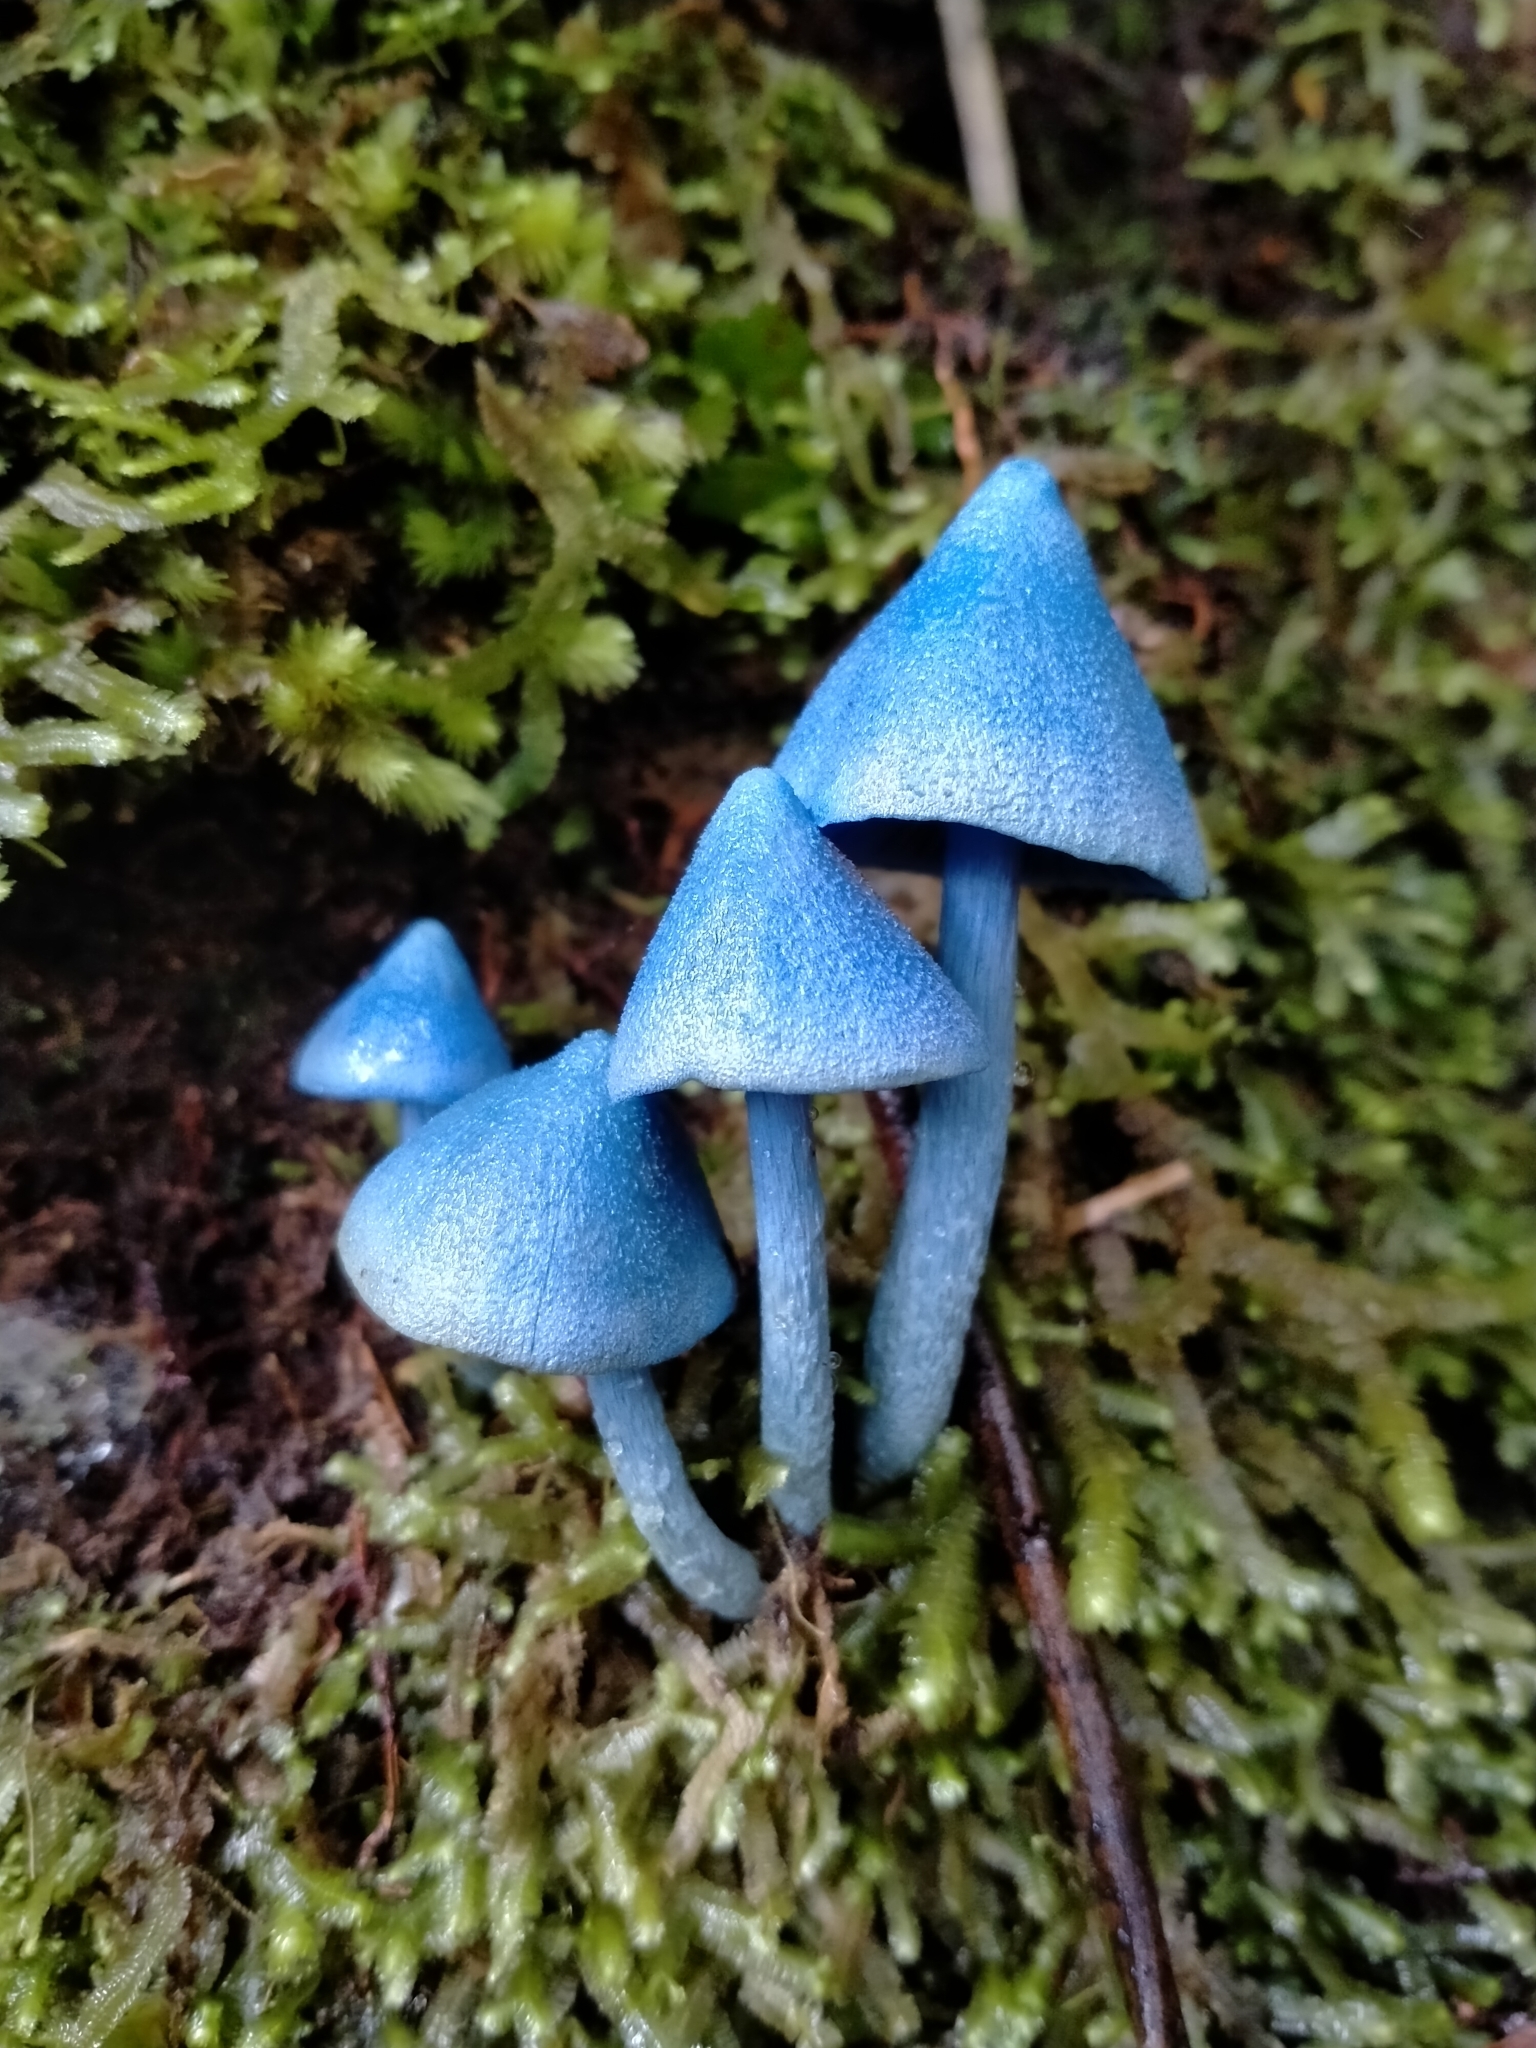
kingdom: Fungi
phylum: Basidiomycota
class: Agaricomycetes
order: Agaricales
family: Entolomataceae
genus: Entoloma
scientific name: Entoloma hochstetteri
